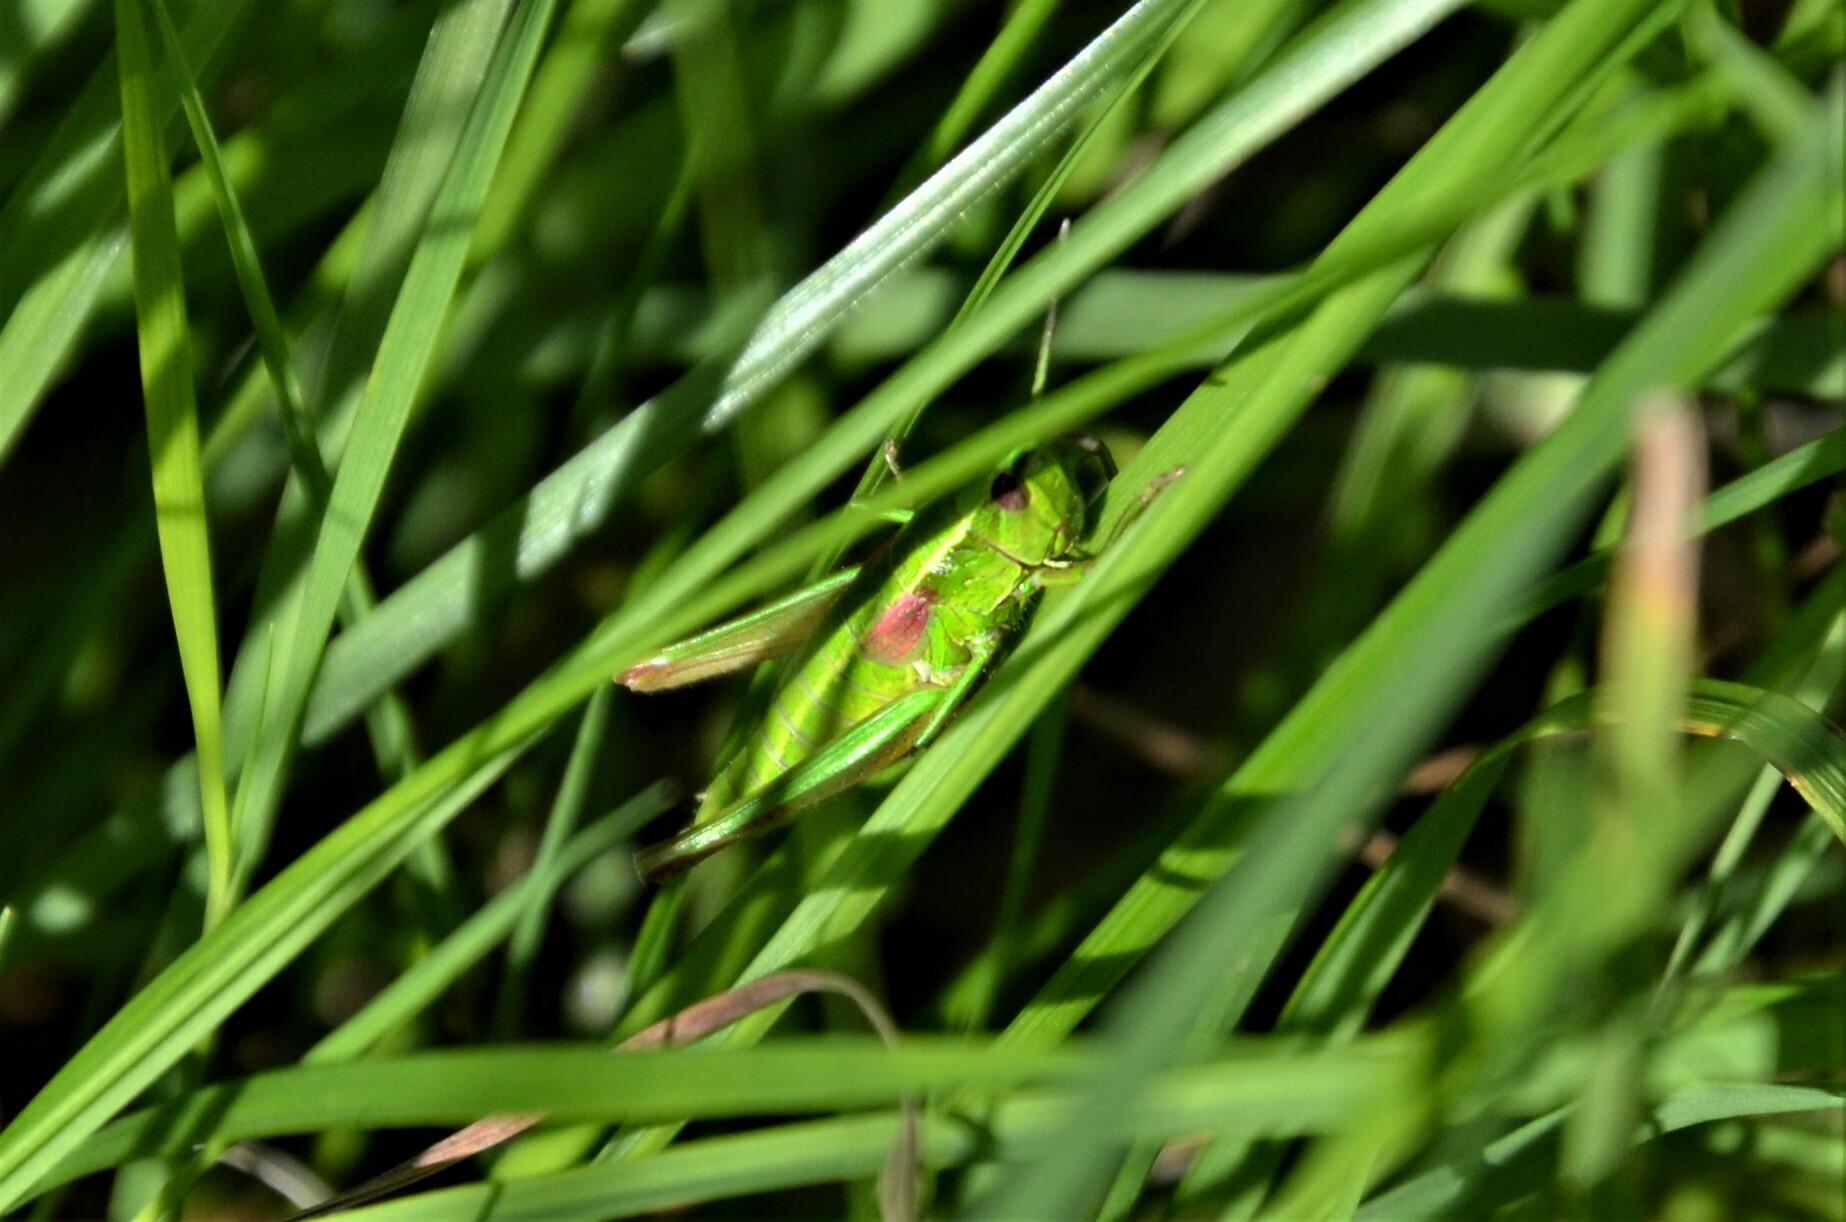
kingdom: Animalia
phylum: Arthropoda
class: Insecta
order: Orthoptera
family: Acrididae
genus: Euthystira
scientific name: Euthystira brachyptera
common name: Small gold grasshopper
